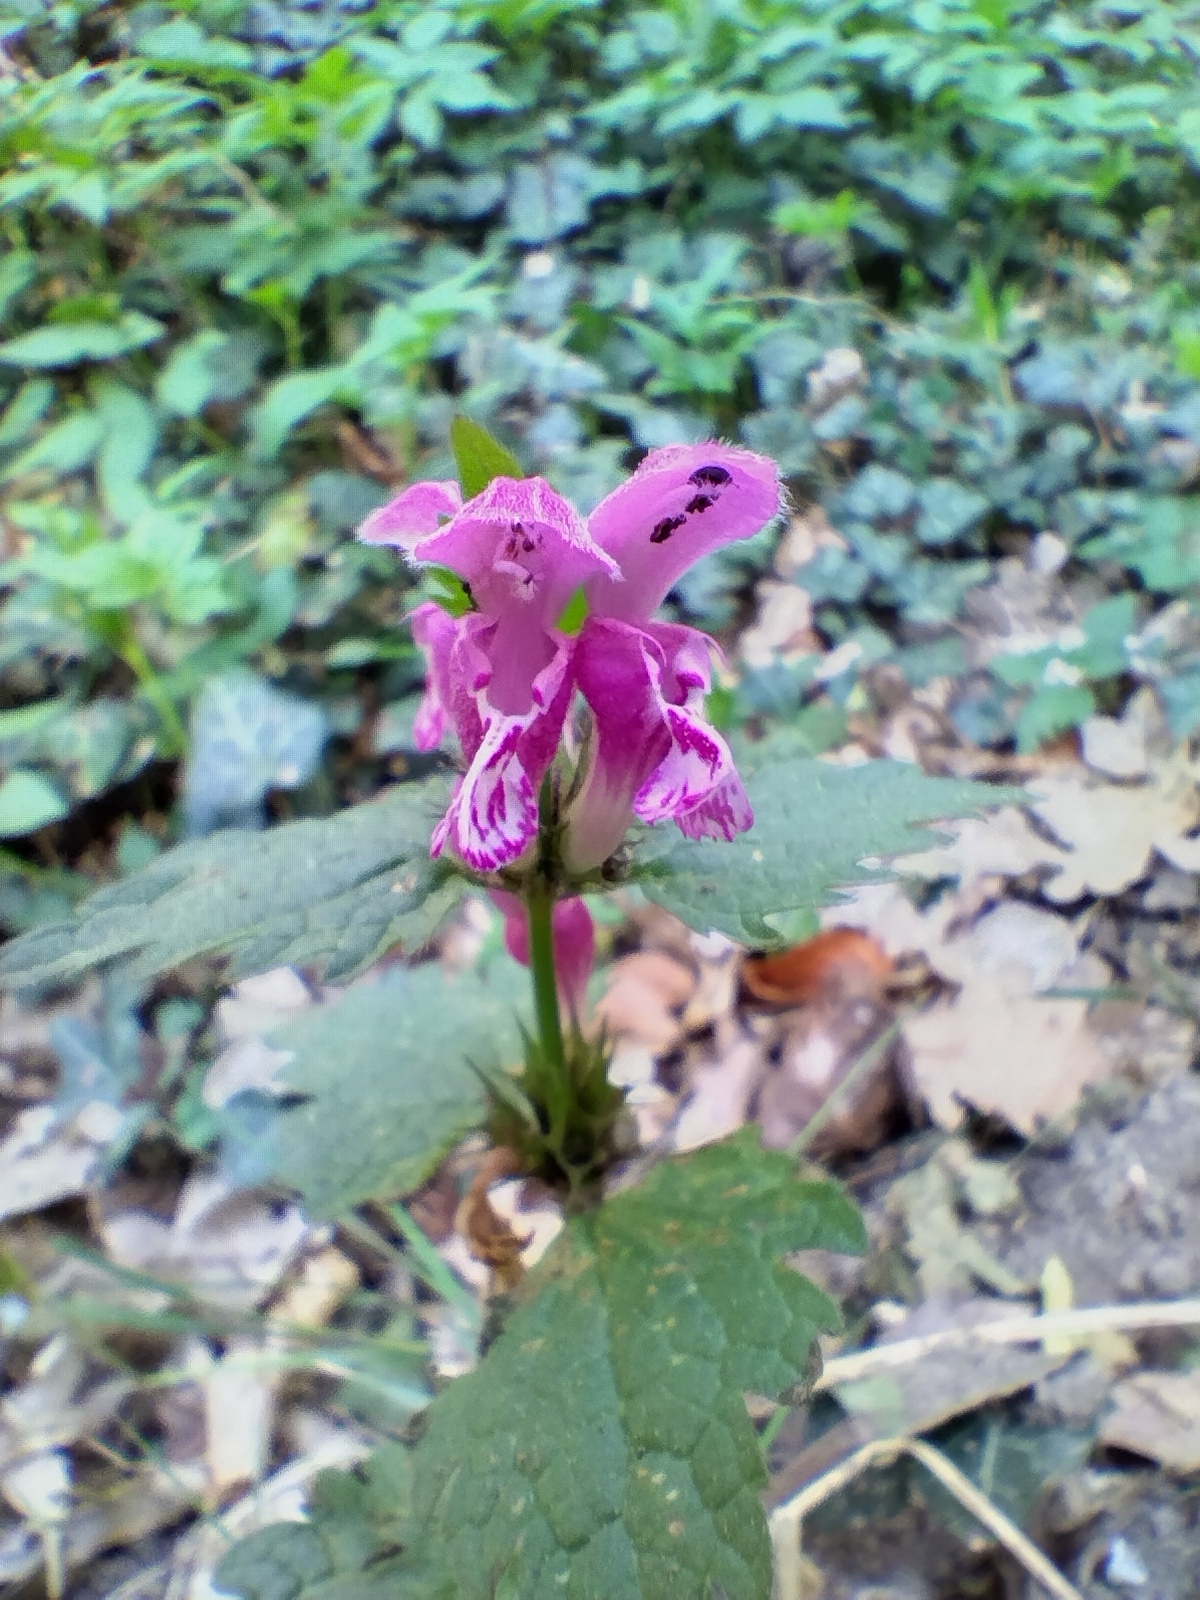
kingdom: Plantae
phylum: Tracheophyta
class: Magnoliopsida
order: Lamiales
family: Lamiaceae
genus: Lamium
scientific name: Lamium maculatum
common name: Spotted dead-nettle
